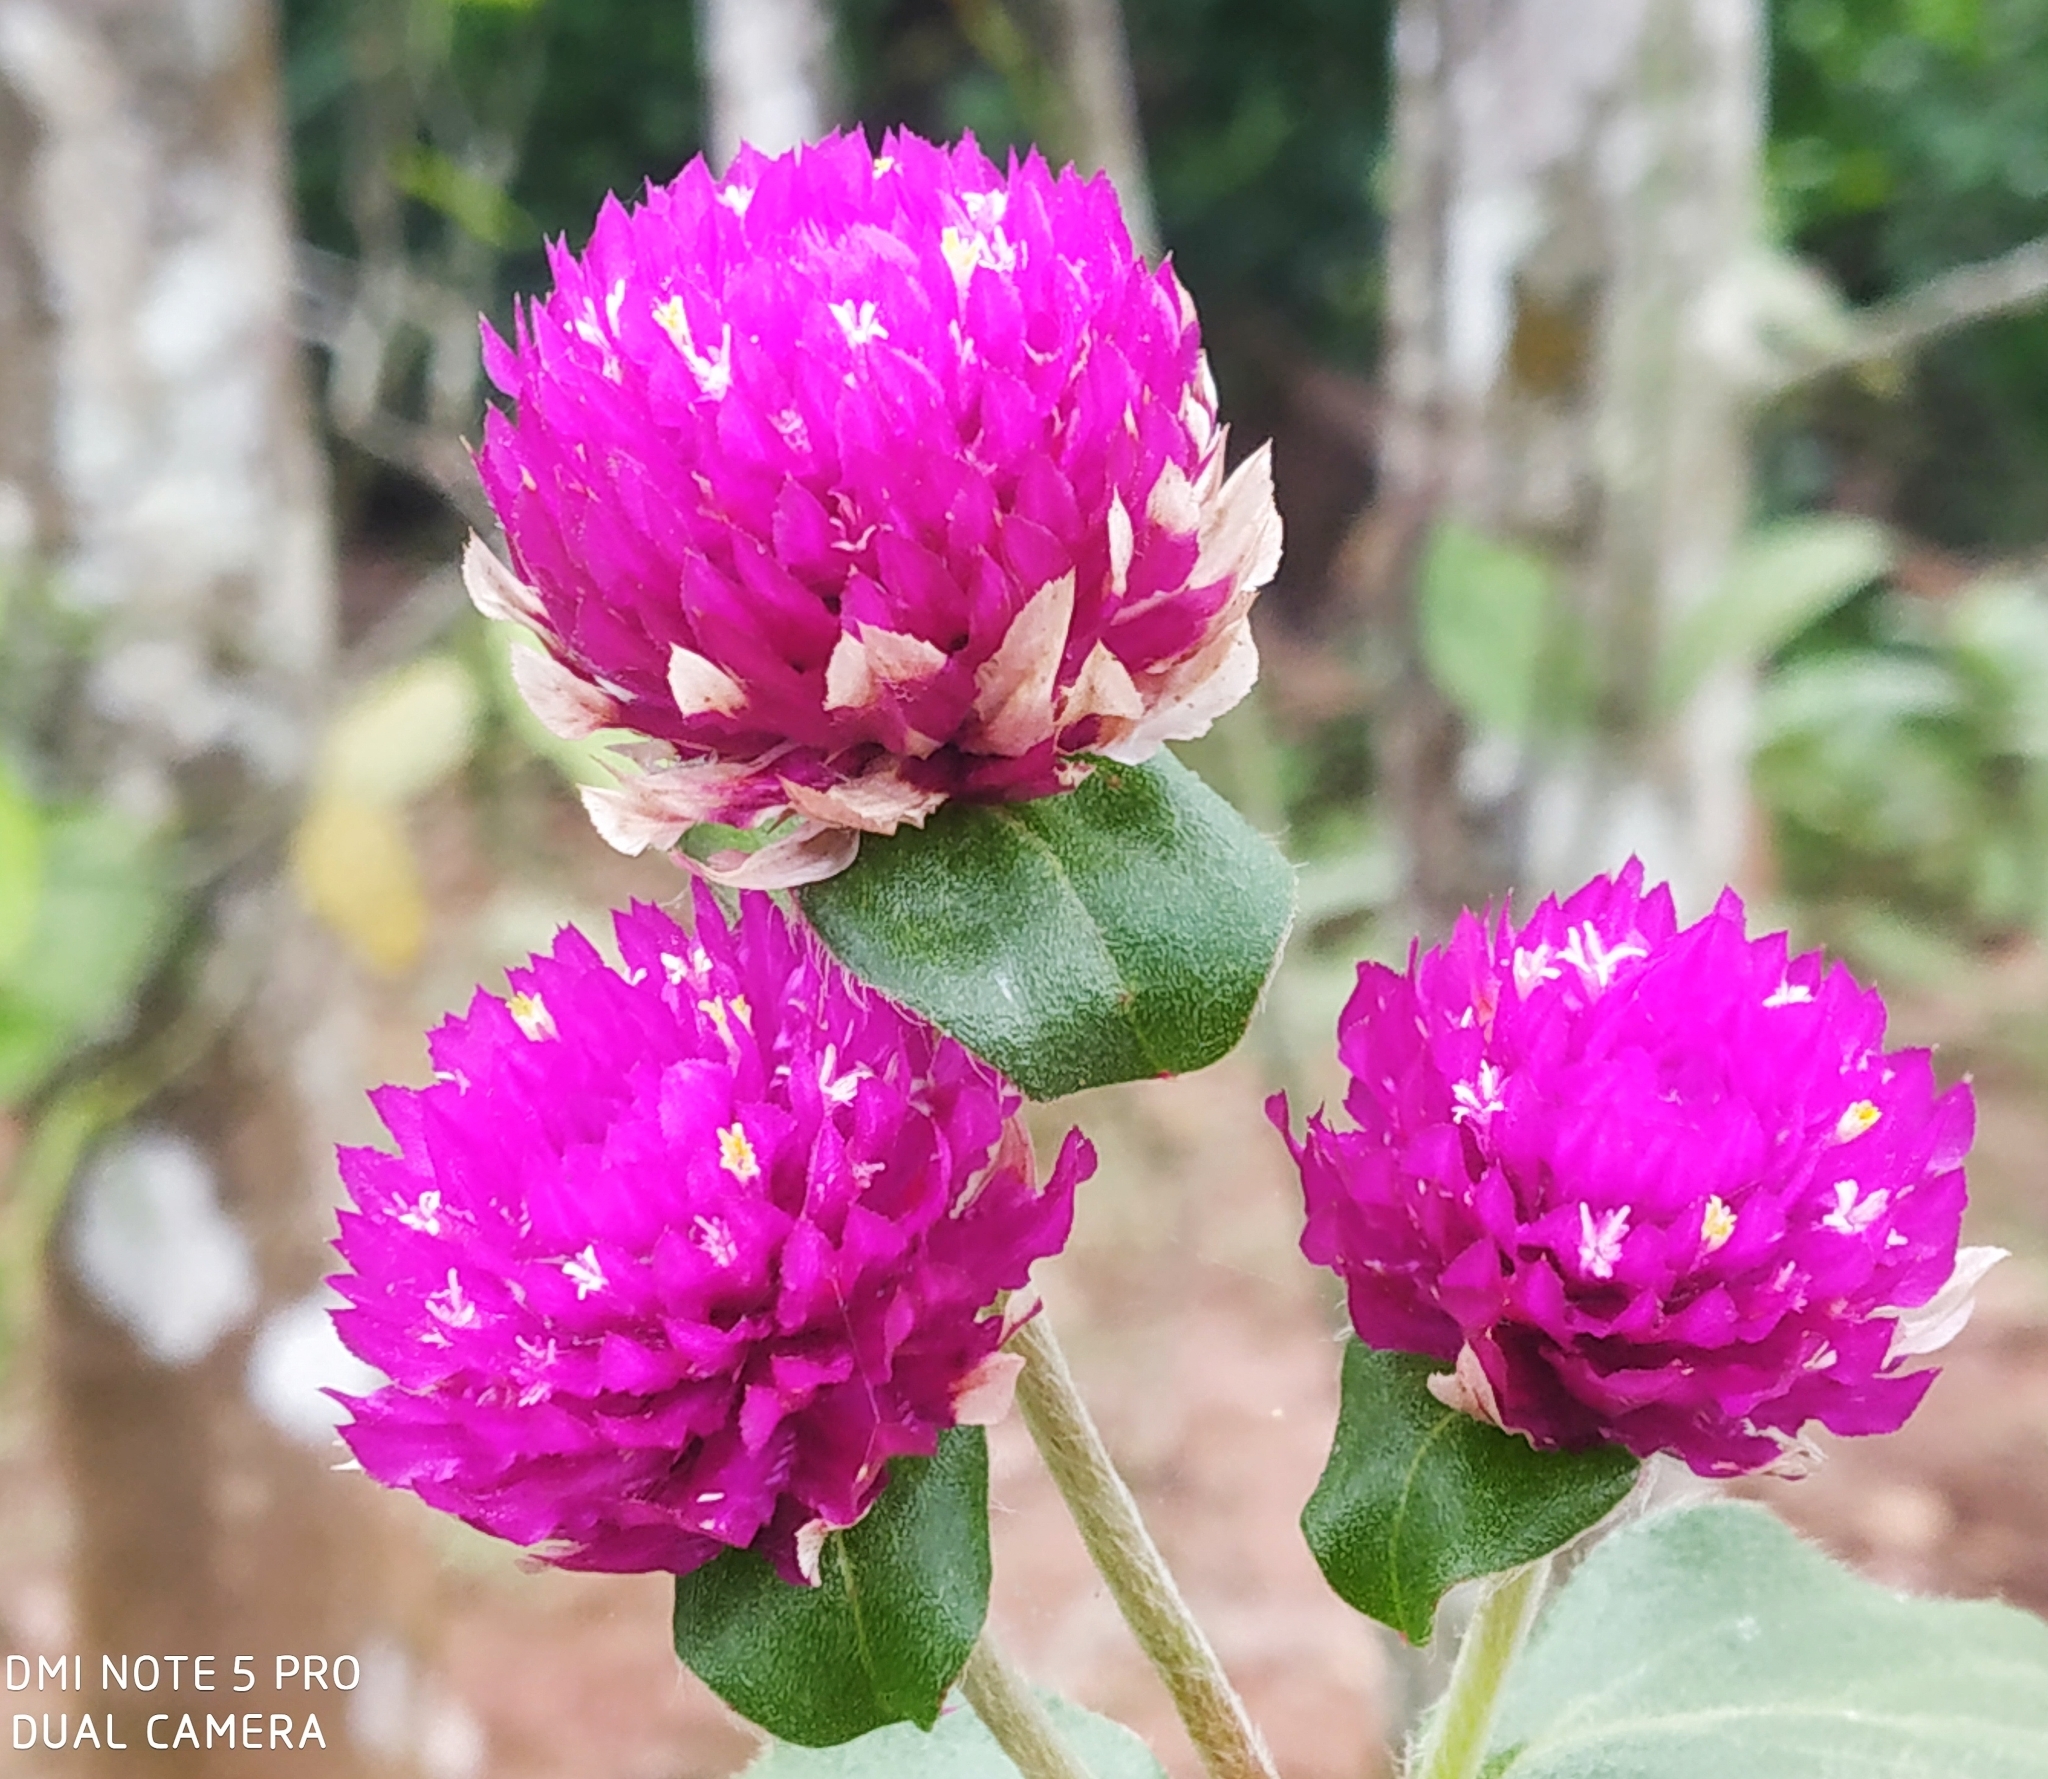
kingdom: Plantae
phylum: Tracheophyta
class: Magnoliopsida
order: Caryophyllales
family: Amaranthaceae
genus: Gomphrena
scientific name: Gomphrena globosa
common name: Common globe amaranth
